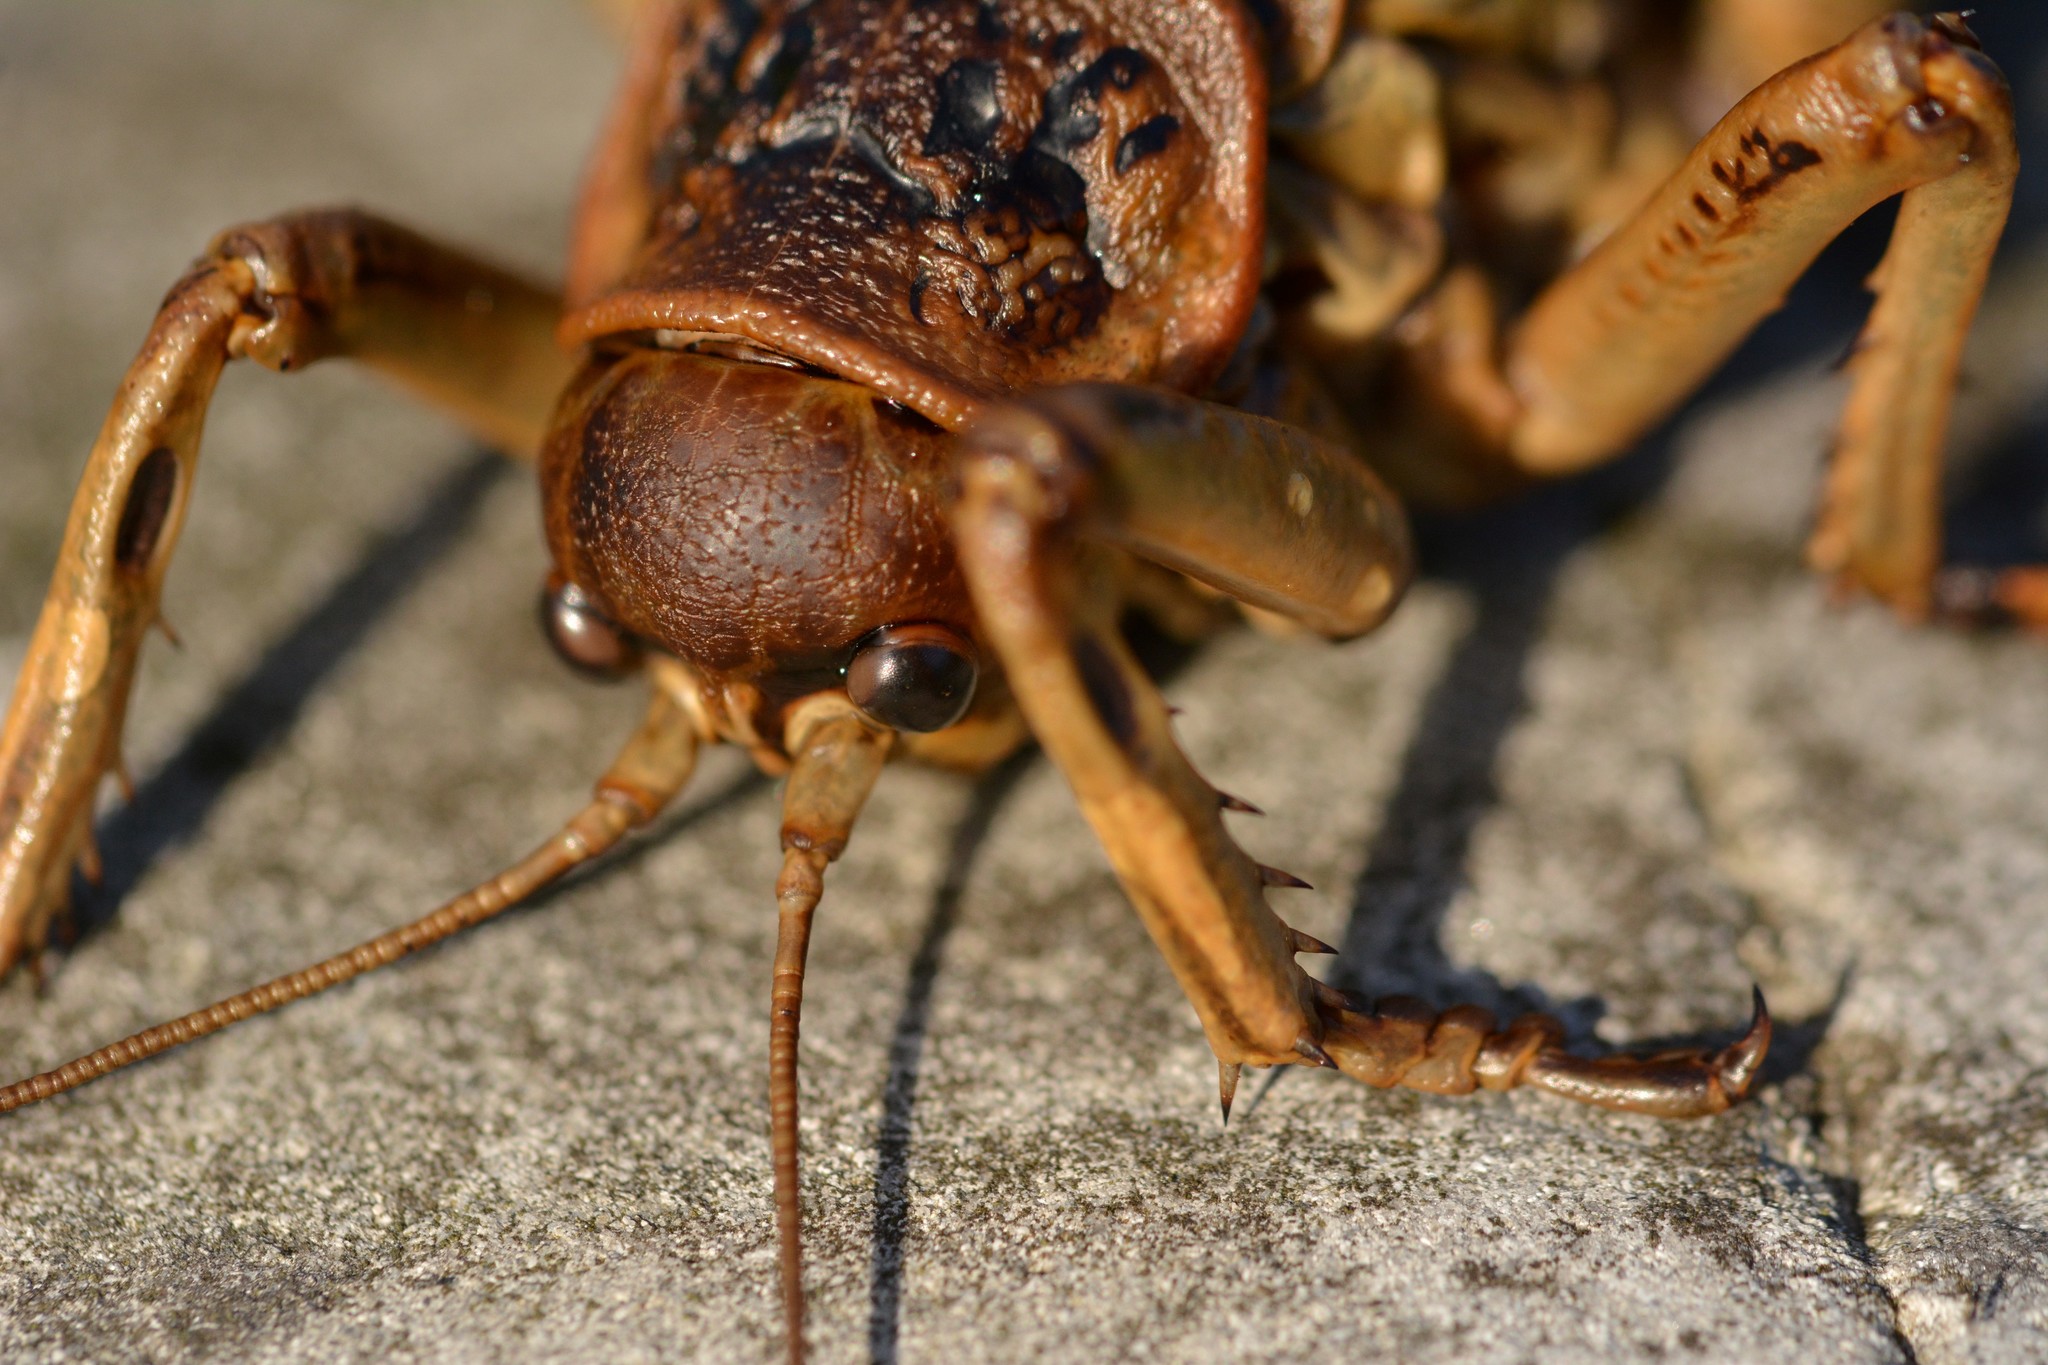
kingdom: Animalia
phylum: Arthropoda
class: Insecta
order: Orthoptera
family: Anostostomatidae
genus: Deinacrida
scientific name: Deinacrida rugosa
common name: Stephens island weta
